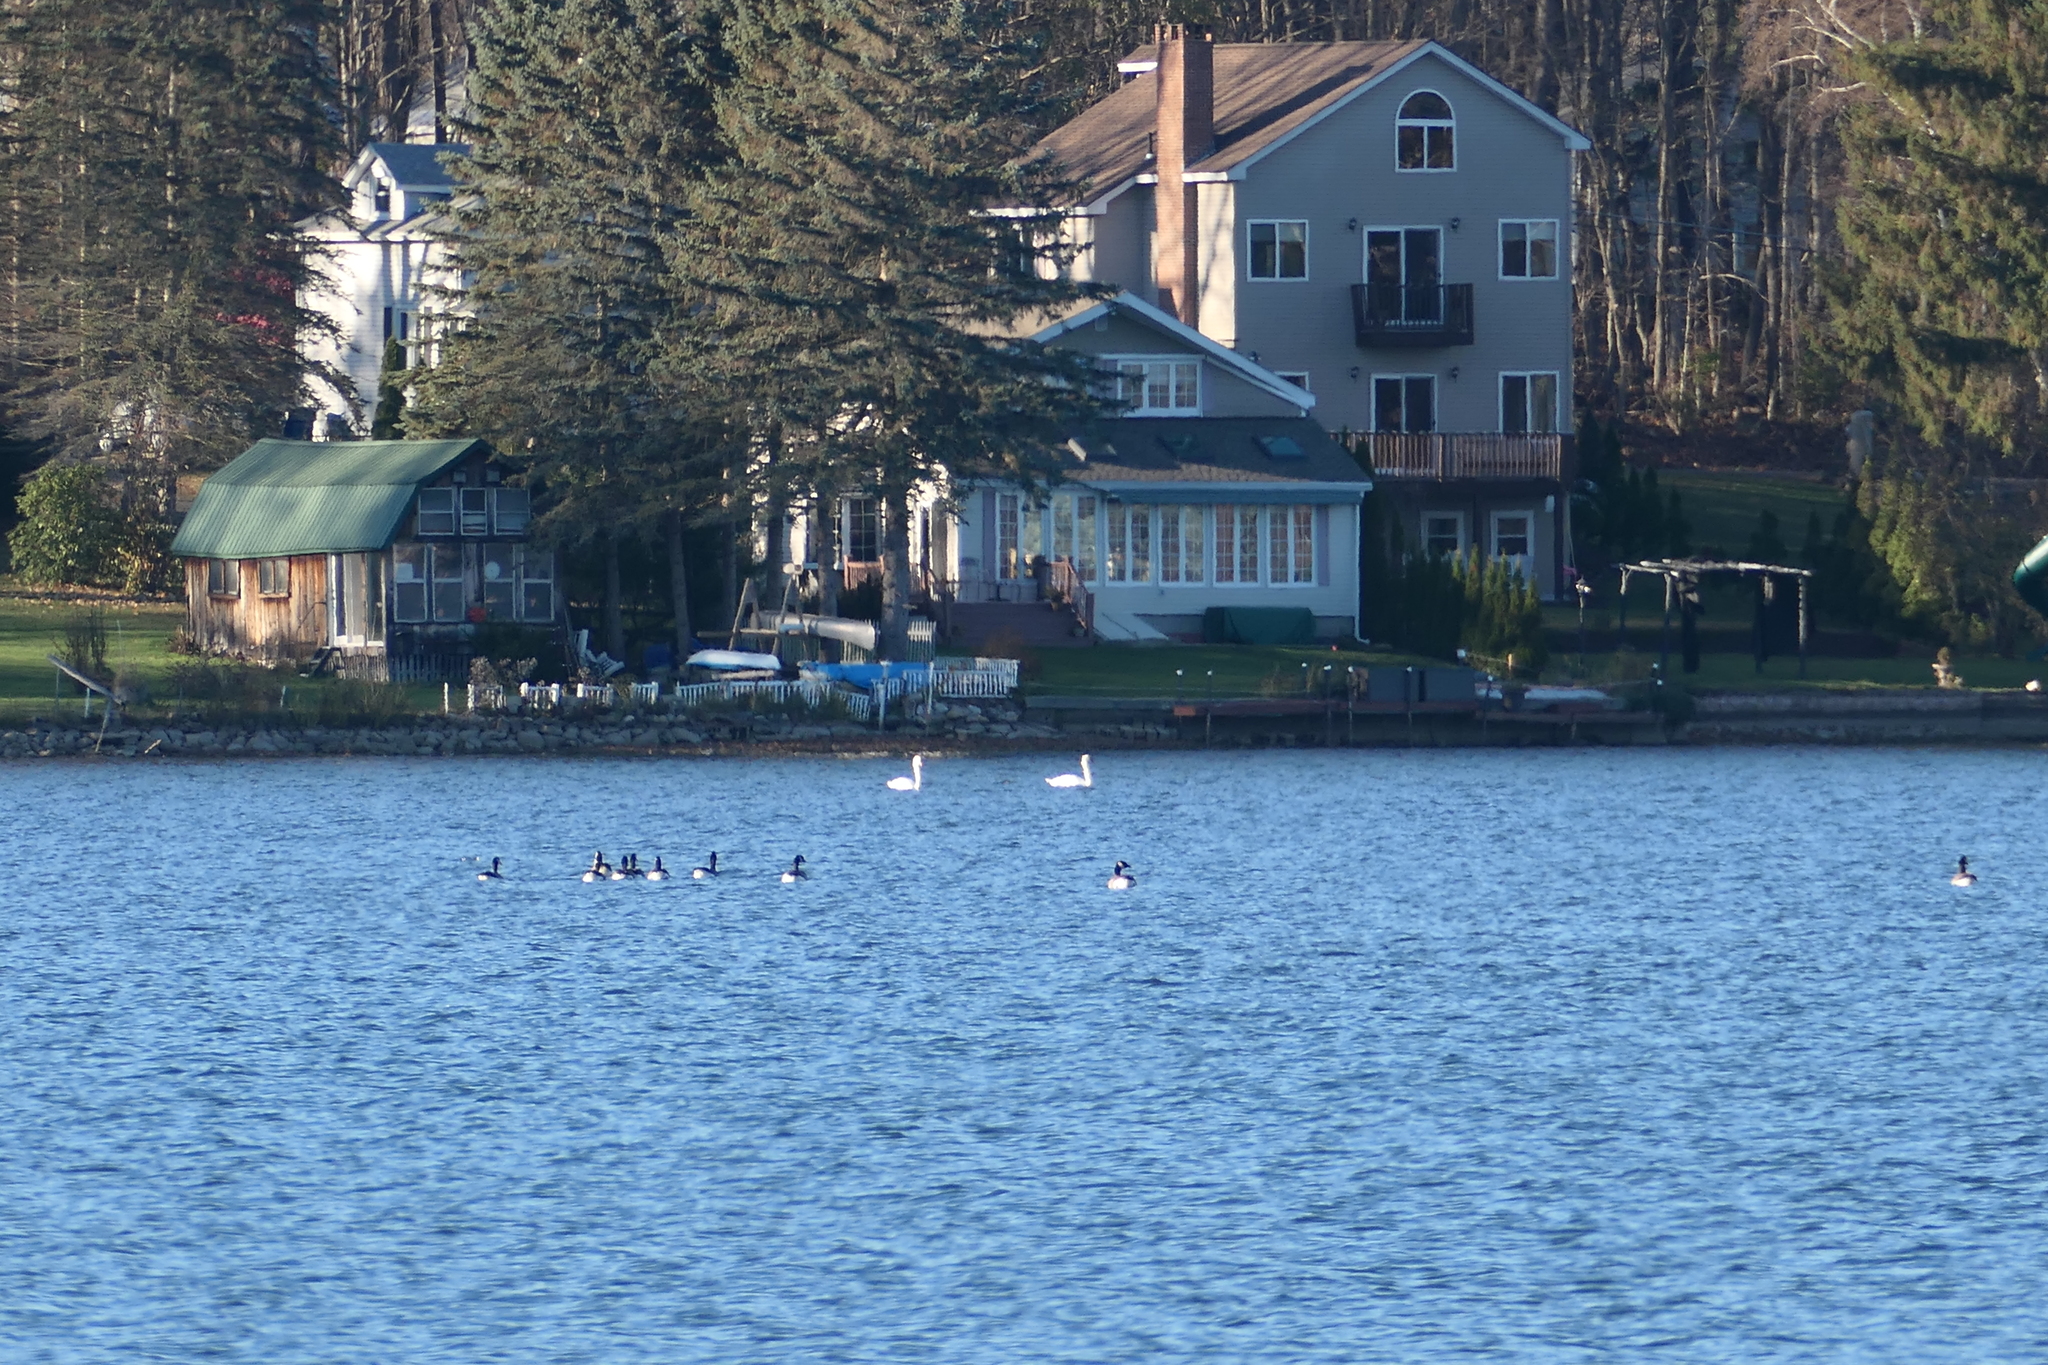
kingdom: Animalia
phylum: Chordata
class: Aves
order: Anseriformes
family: Anatidae
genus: Cygnus
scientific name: Cygnus olor
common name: Mute swan
